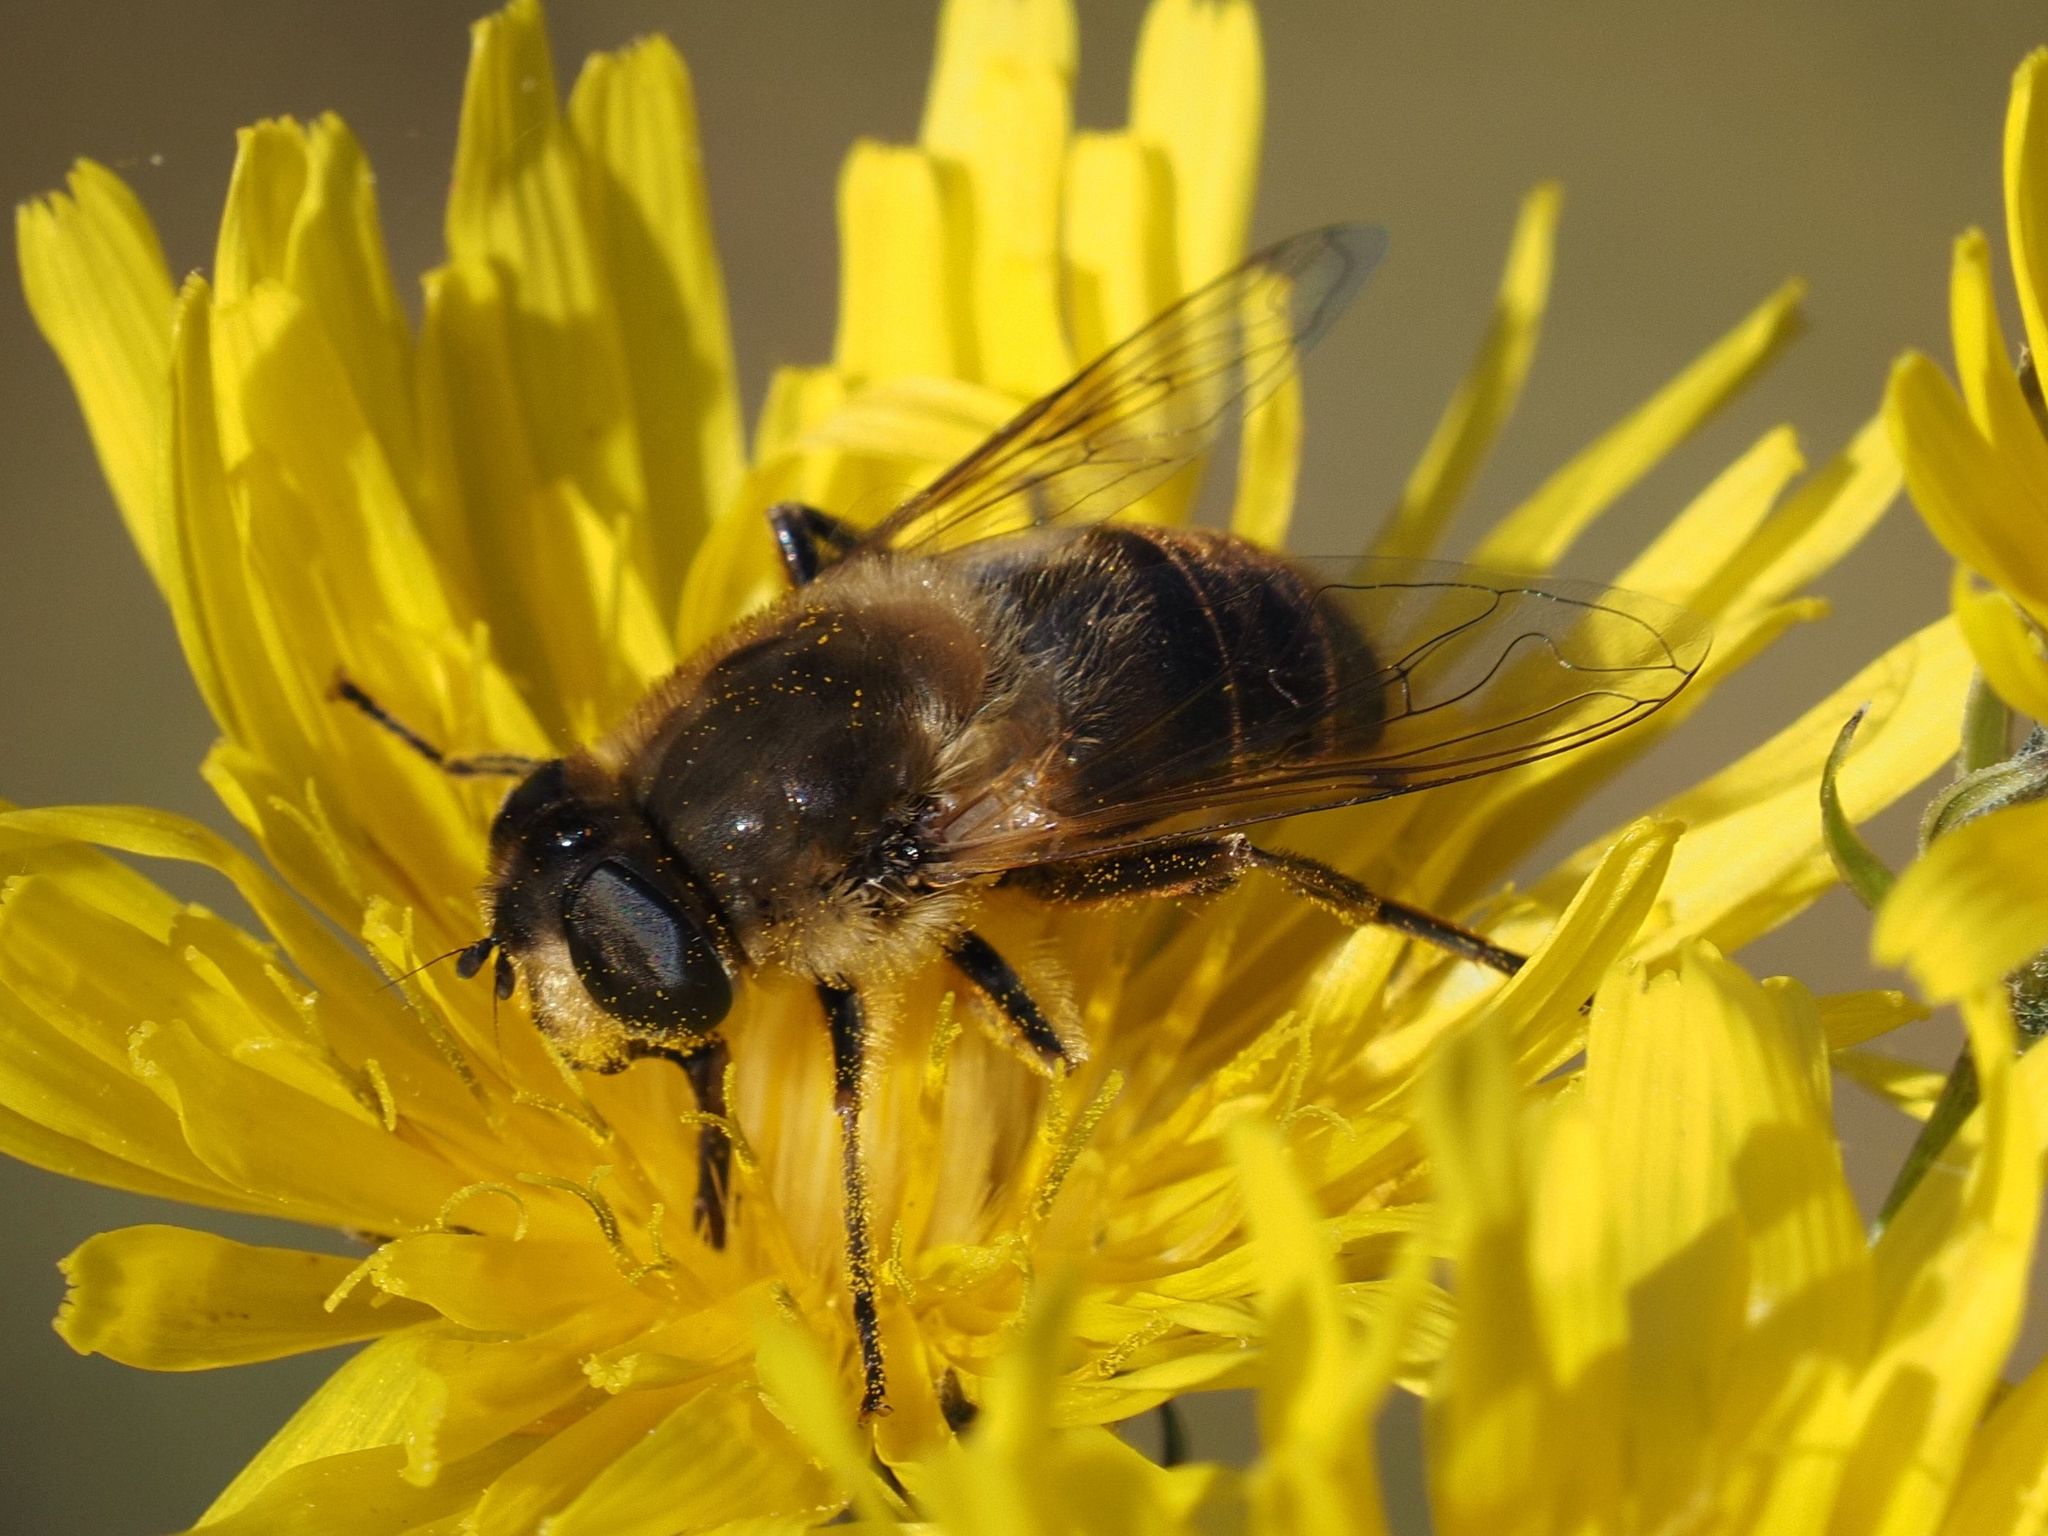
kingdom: Animalia
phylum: Arthropoda
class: Insecta
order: Diptera
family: Syrphidae
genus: Eristalis
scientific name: Eristalis tenax
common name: Drone fly
